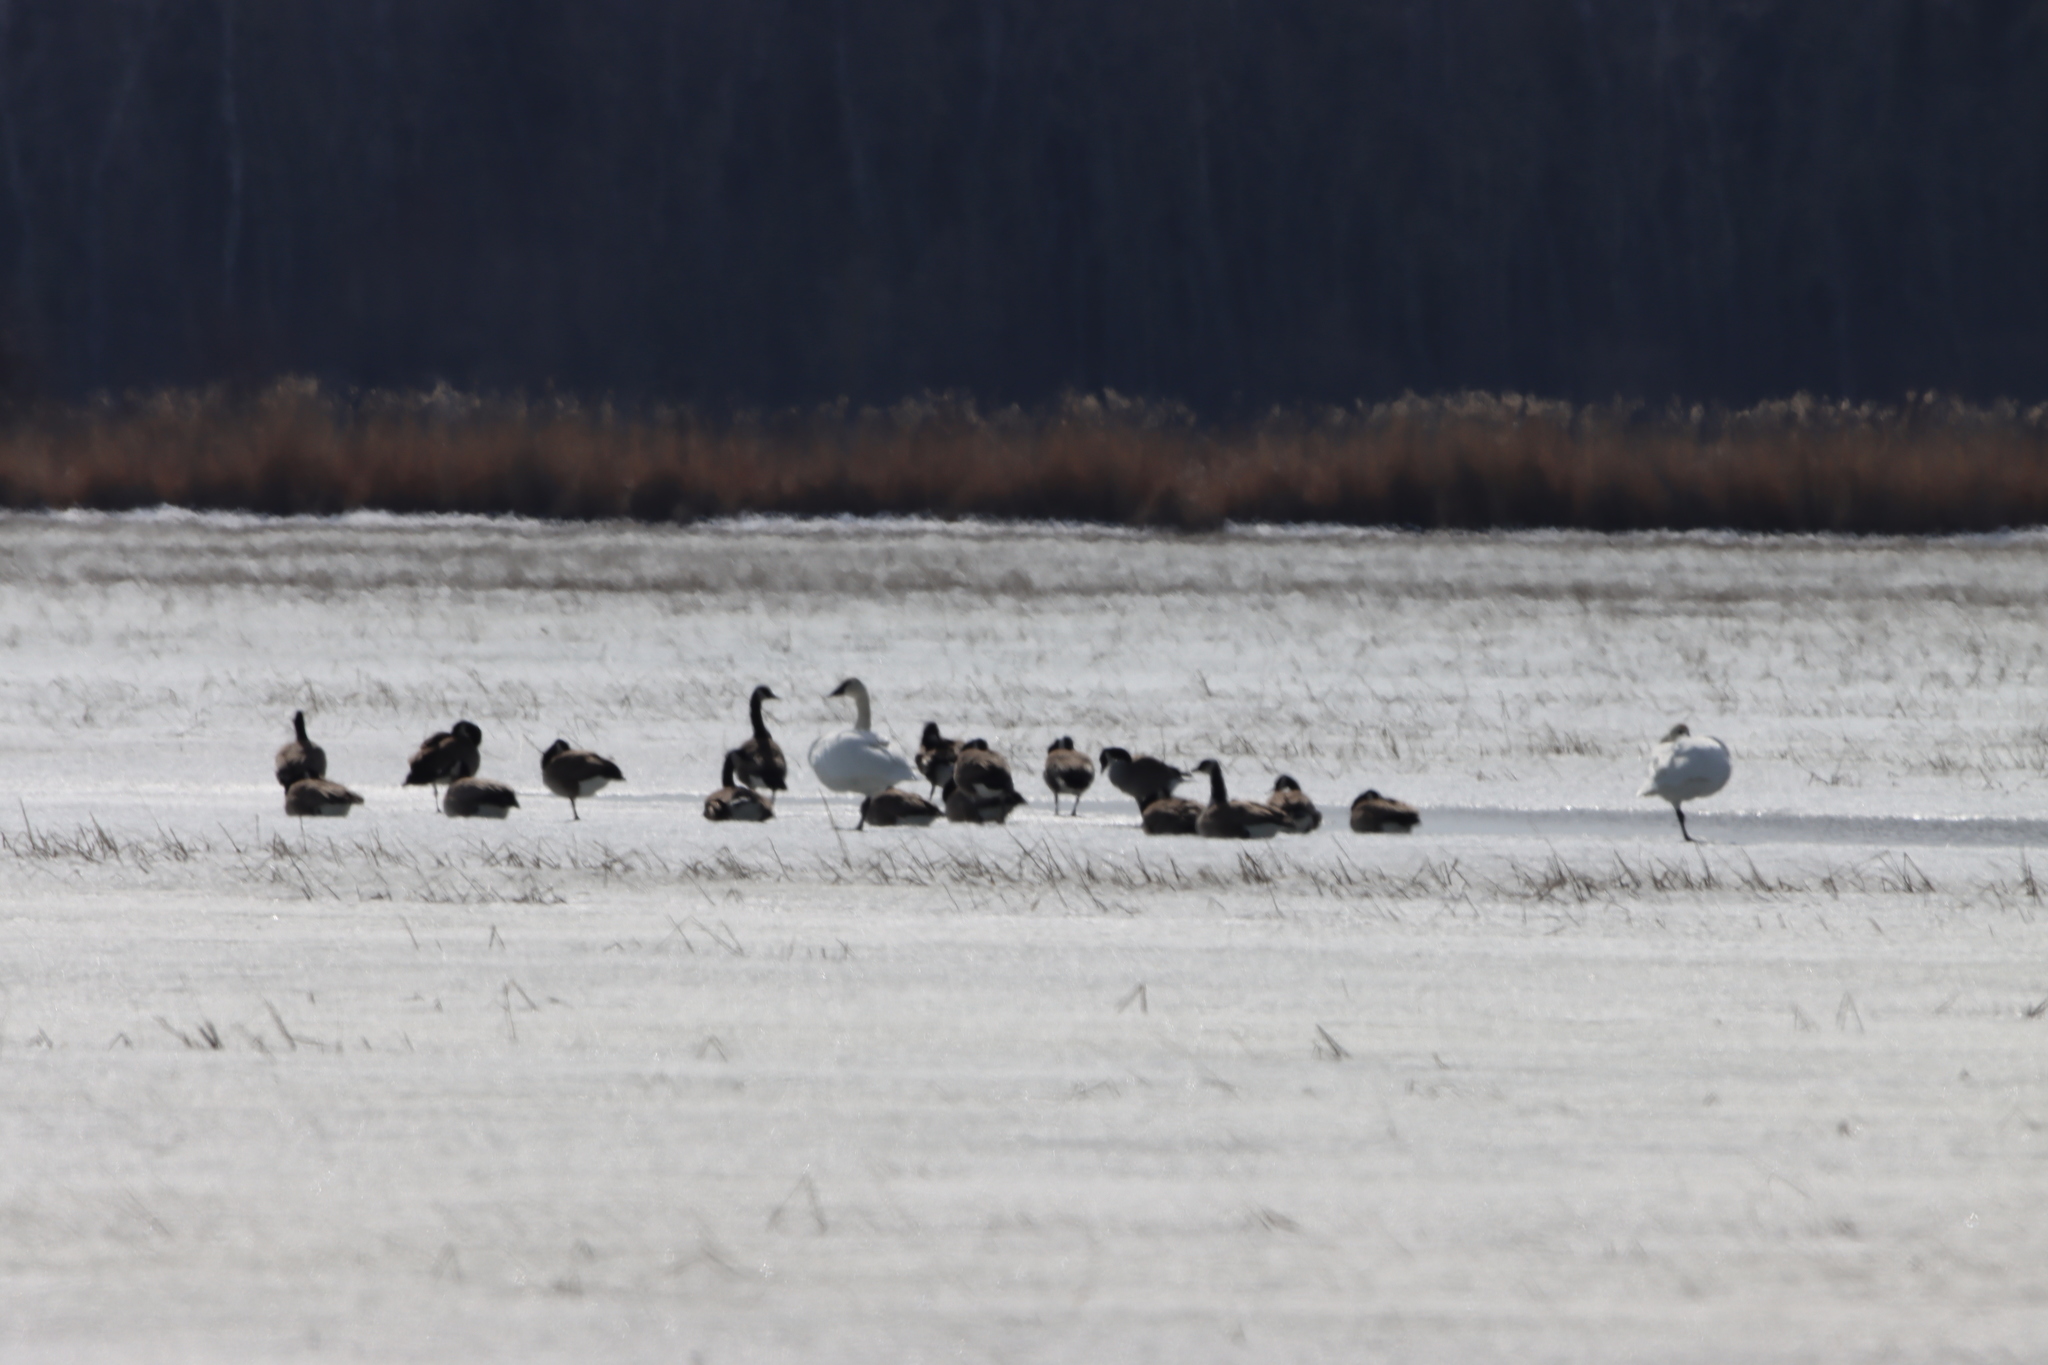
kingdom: Animalia
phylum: Chordata
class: Aves
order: Anseriformes
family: Anatidae
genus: Branta
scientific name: Branta canadensis
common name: Canada goose
